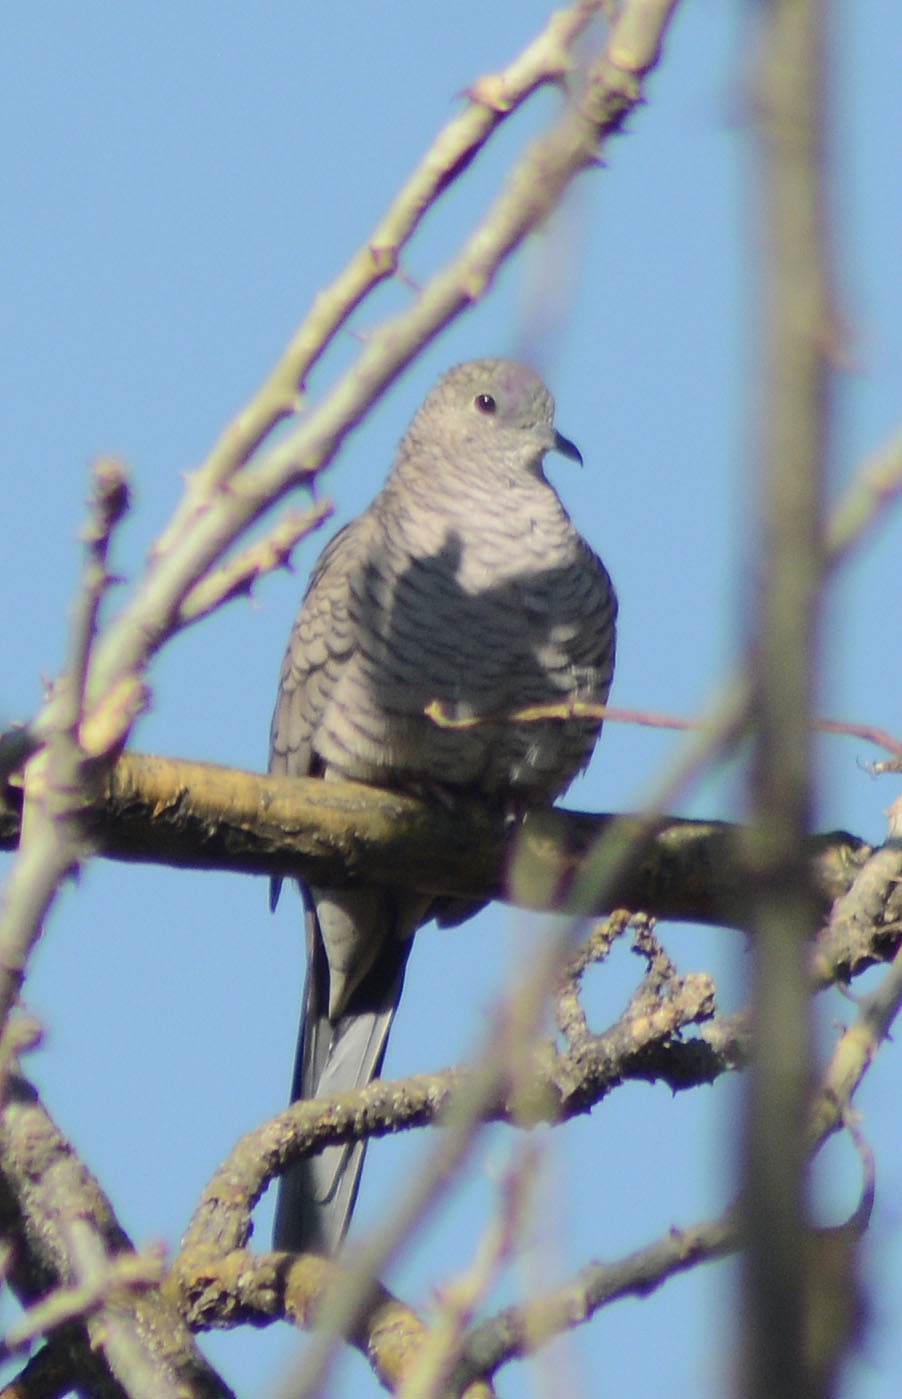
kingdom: Animalia
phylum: Chordata
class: Aves
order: Columbiformes
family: Columbidae
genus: Columbina
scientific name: Columbina inca
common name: Inca dove
